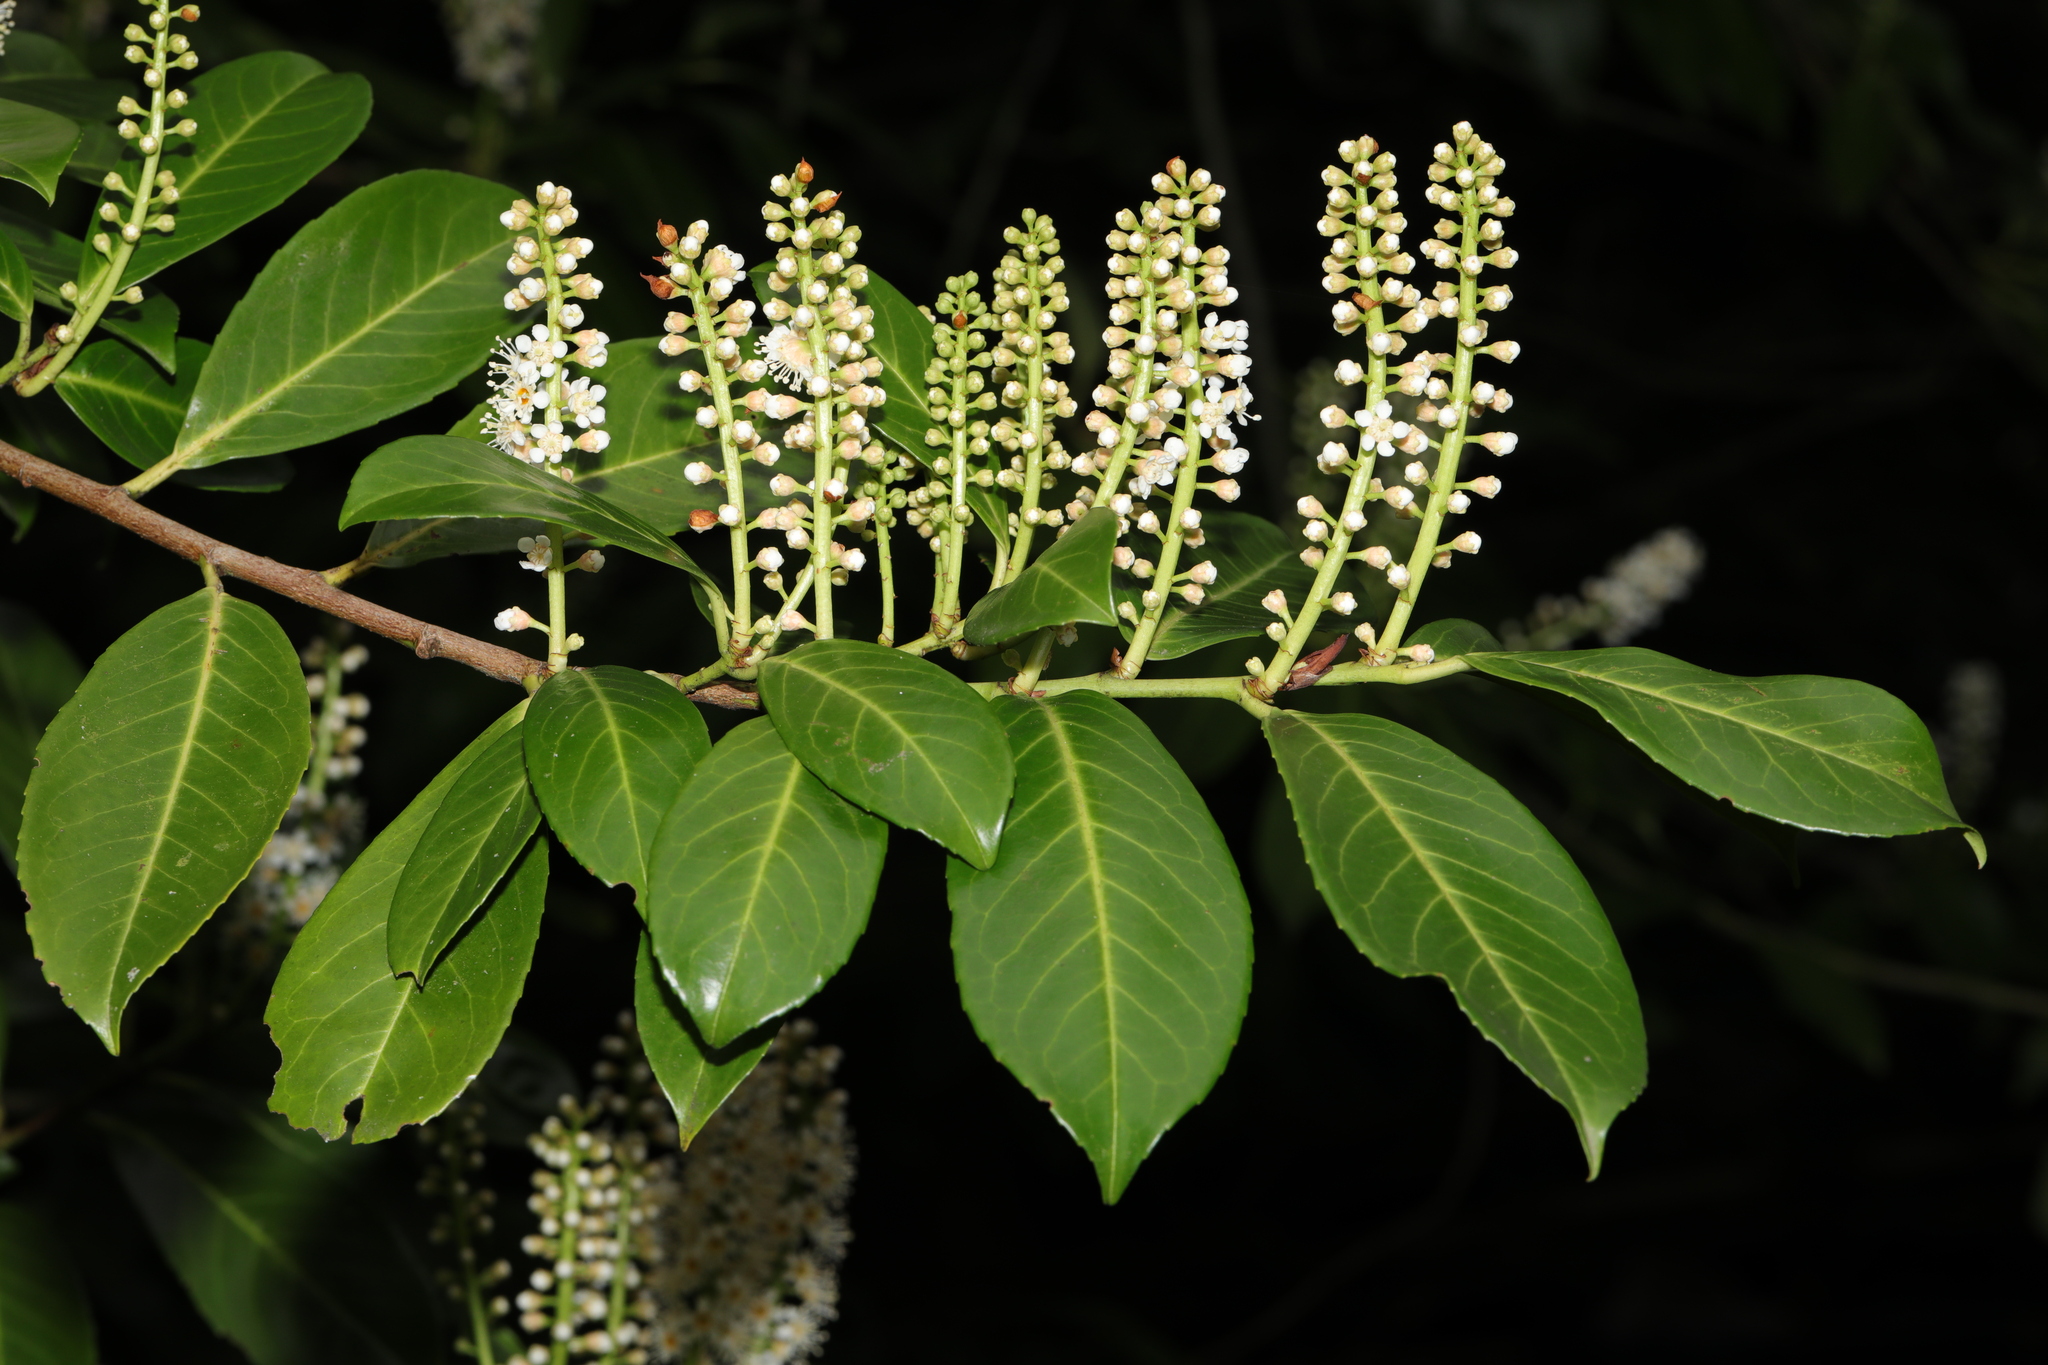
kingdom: Plantae
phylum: Tracheophyta
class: Magnoliopsida
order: Rosales
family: Rosaceae
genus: Prunus
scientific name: Prunus laurocerasus
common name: Cherry laurel
